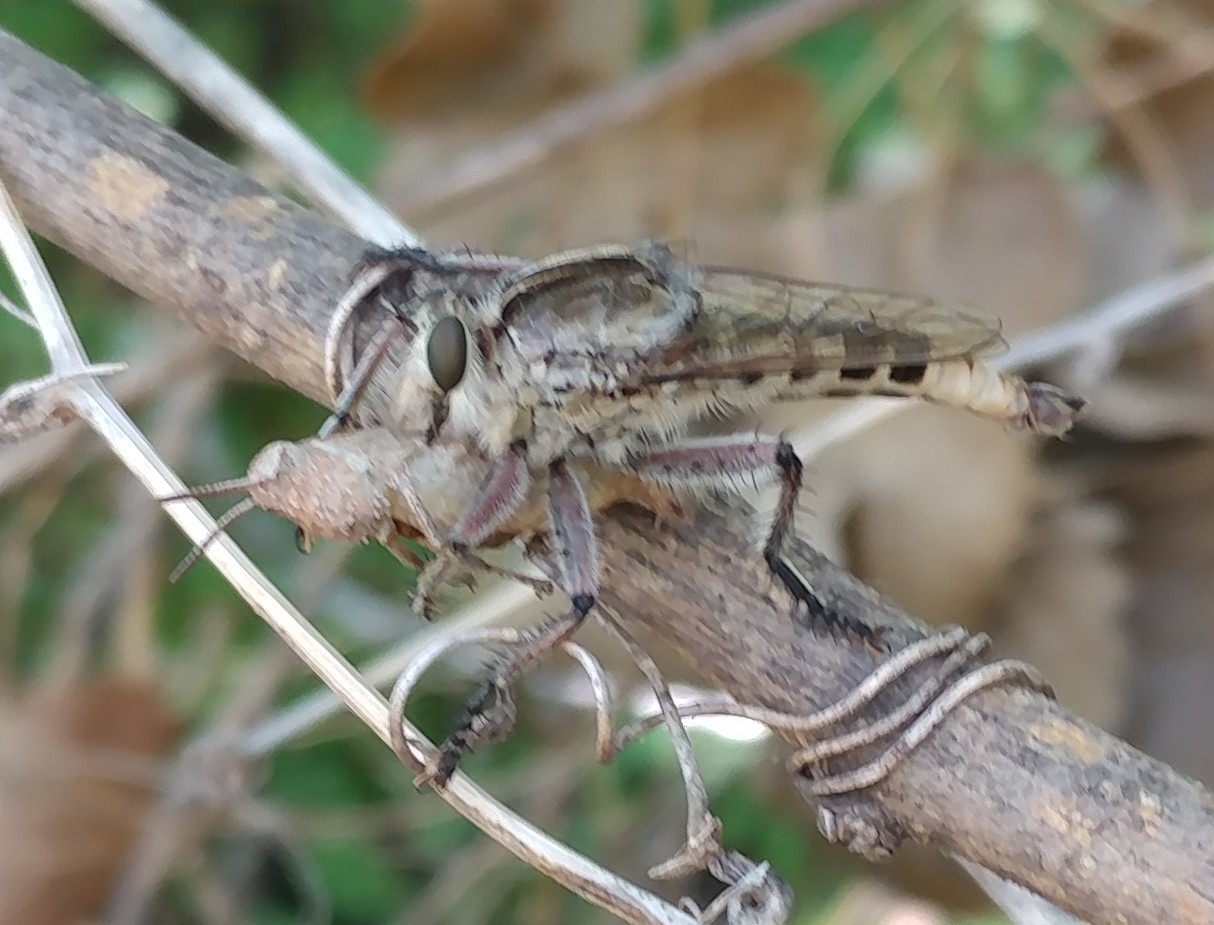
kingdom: Animalia
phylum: Arthropoda
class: Insecta
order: Diptera
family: Asilidae
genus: Triorla
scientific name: Triorla interrupta
